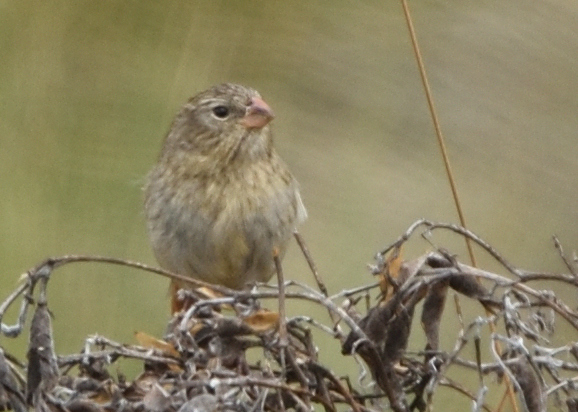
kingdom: Animalia
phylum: Chordata
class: Aves
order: Passeriformes
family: Thraupidae
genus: Catamenia
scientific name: Catamenia inornata
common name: Plain-colored seedeater
